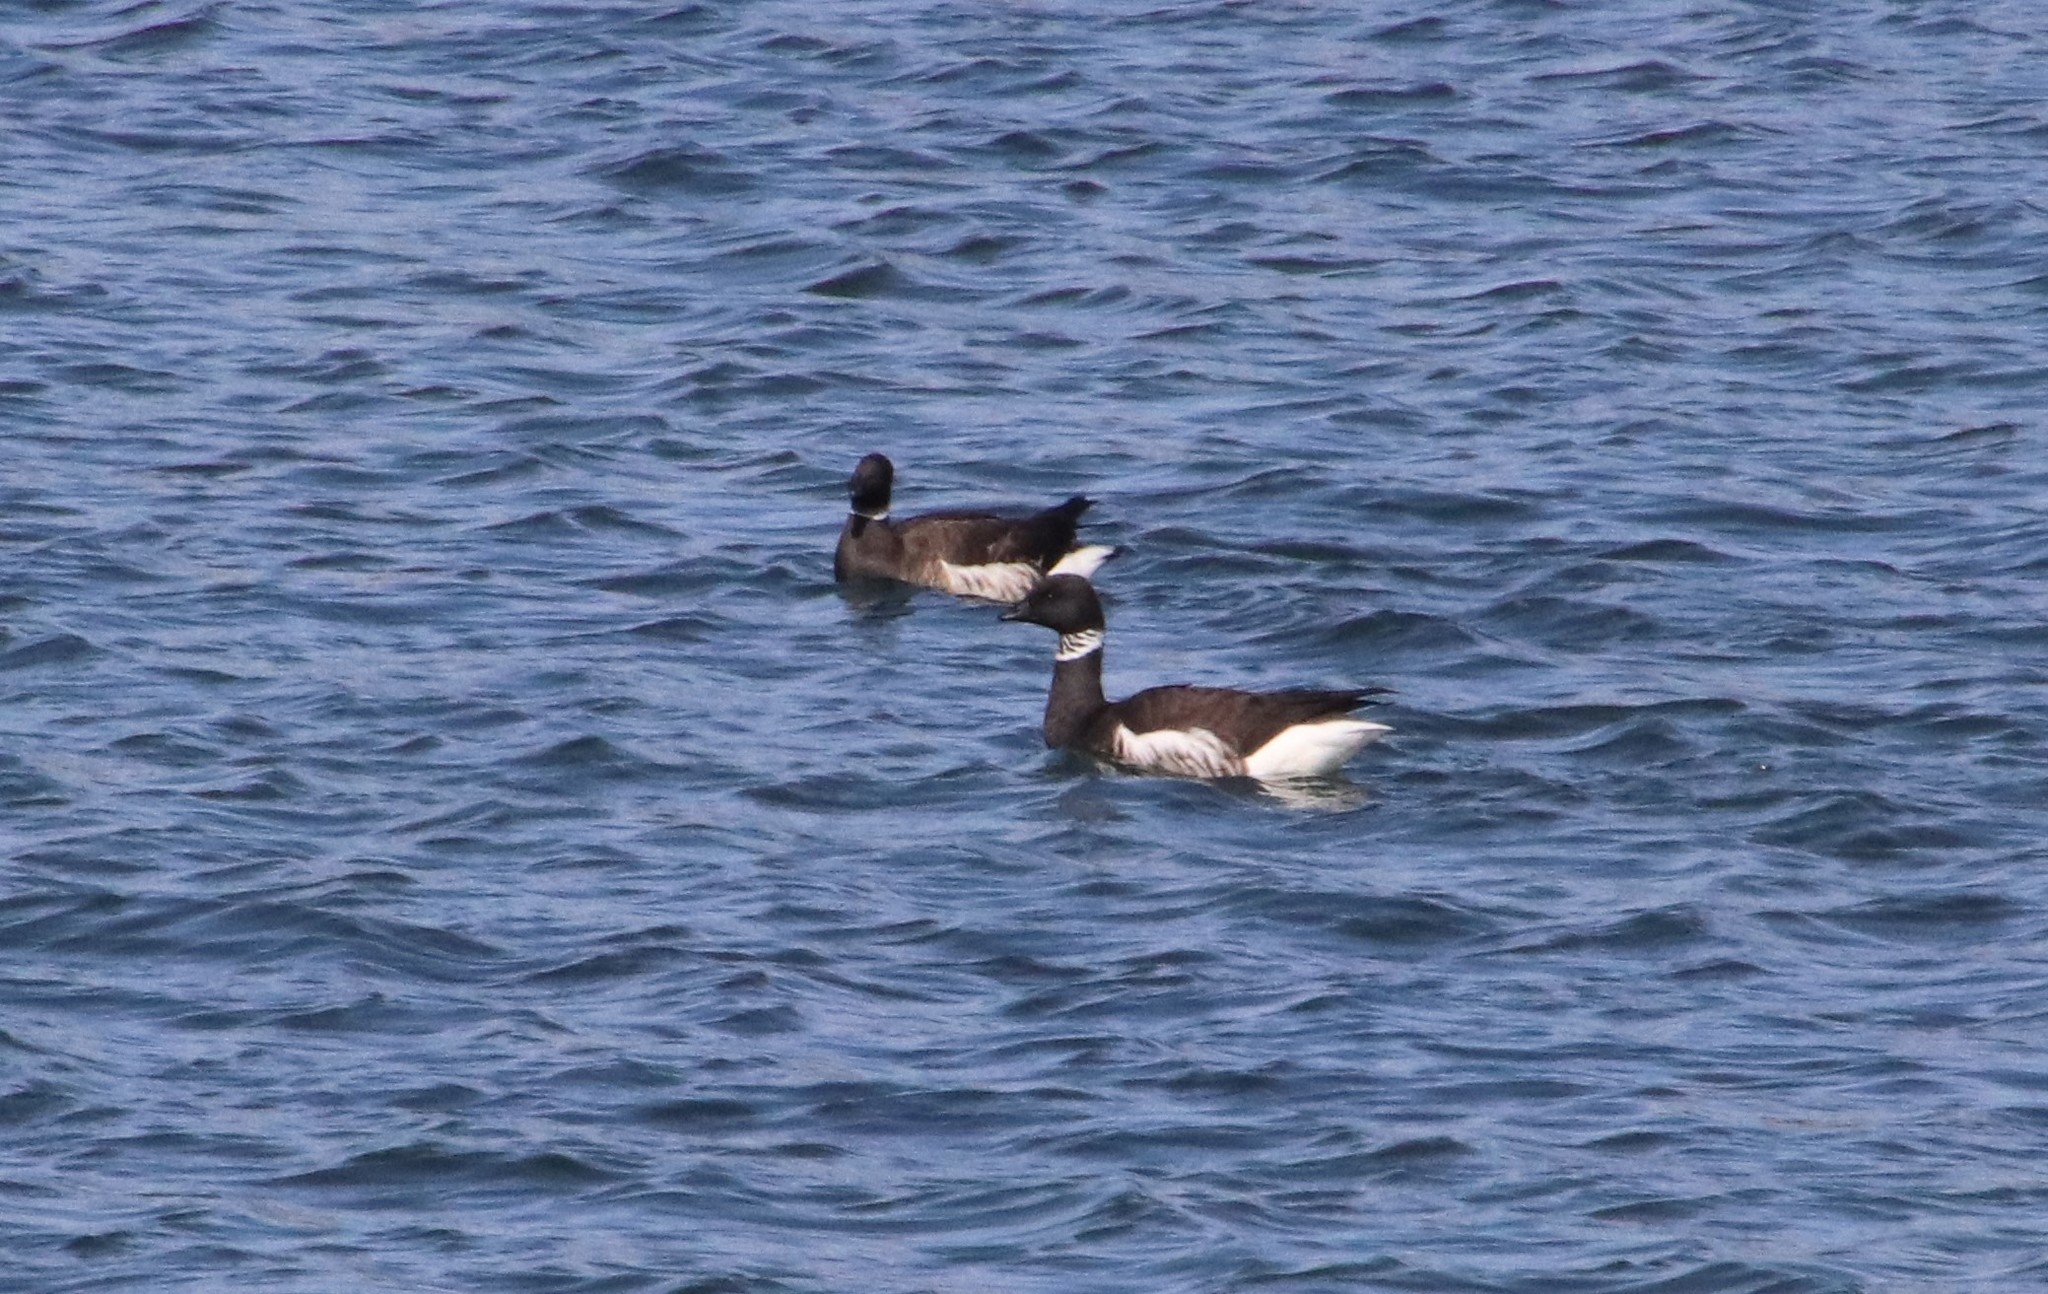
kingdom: Animalia
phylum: Chordata
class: Aves
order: Anseriformes
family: Anatidae
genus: Branta
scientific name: Branta bernicla
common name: Brant goose
